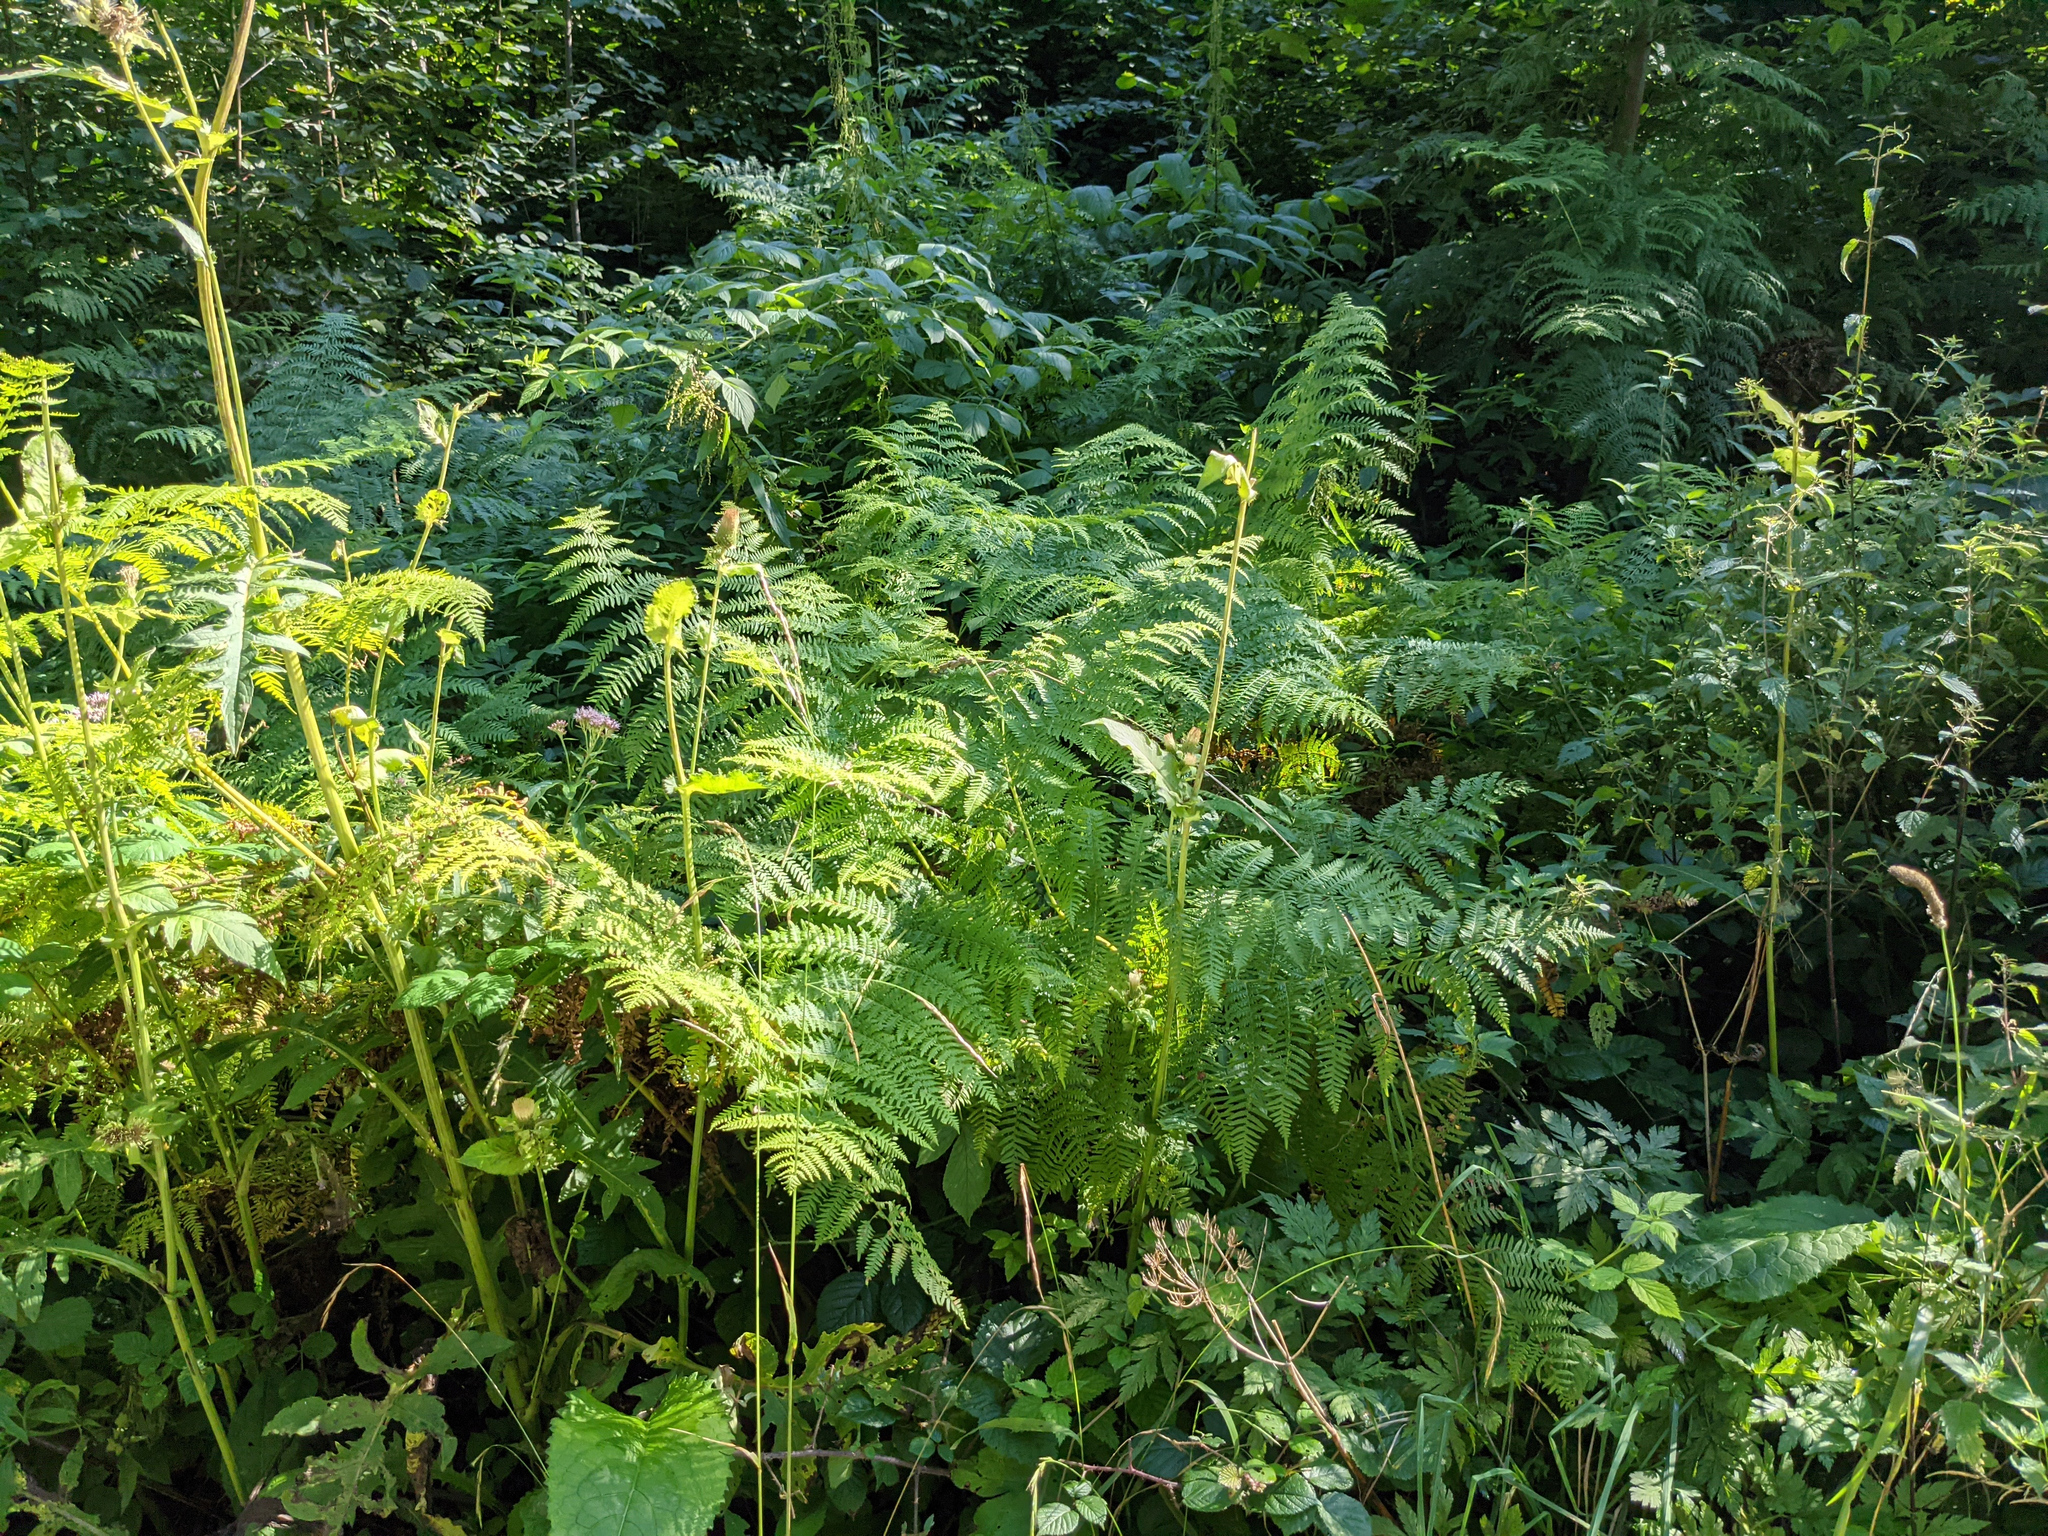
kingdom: Plantae
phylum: Tracheophyta
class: Polypodiopsida
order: Polypodiales
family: Dennstaedtiaceae
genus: Pteridium
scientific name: Pteridium aquilinum
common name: Bracken
